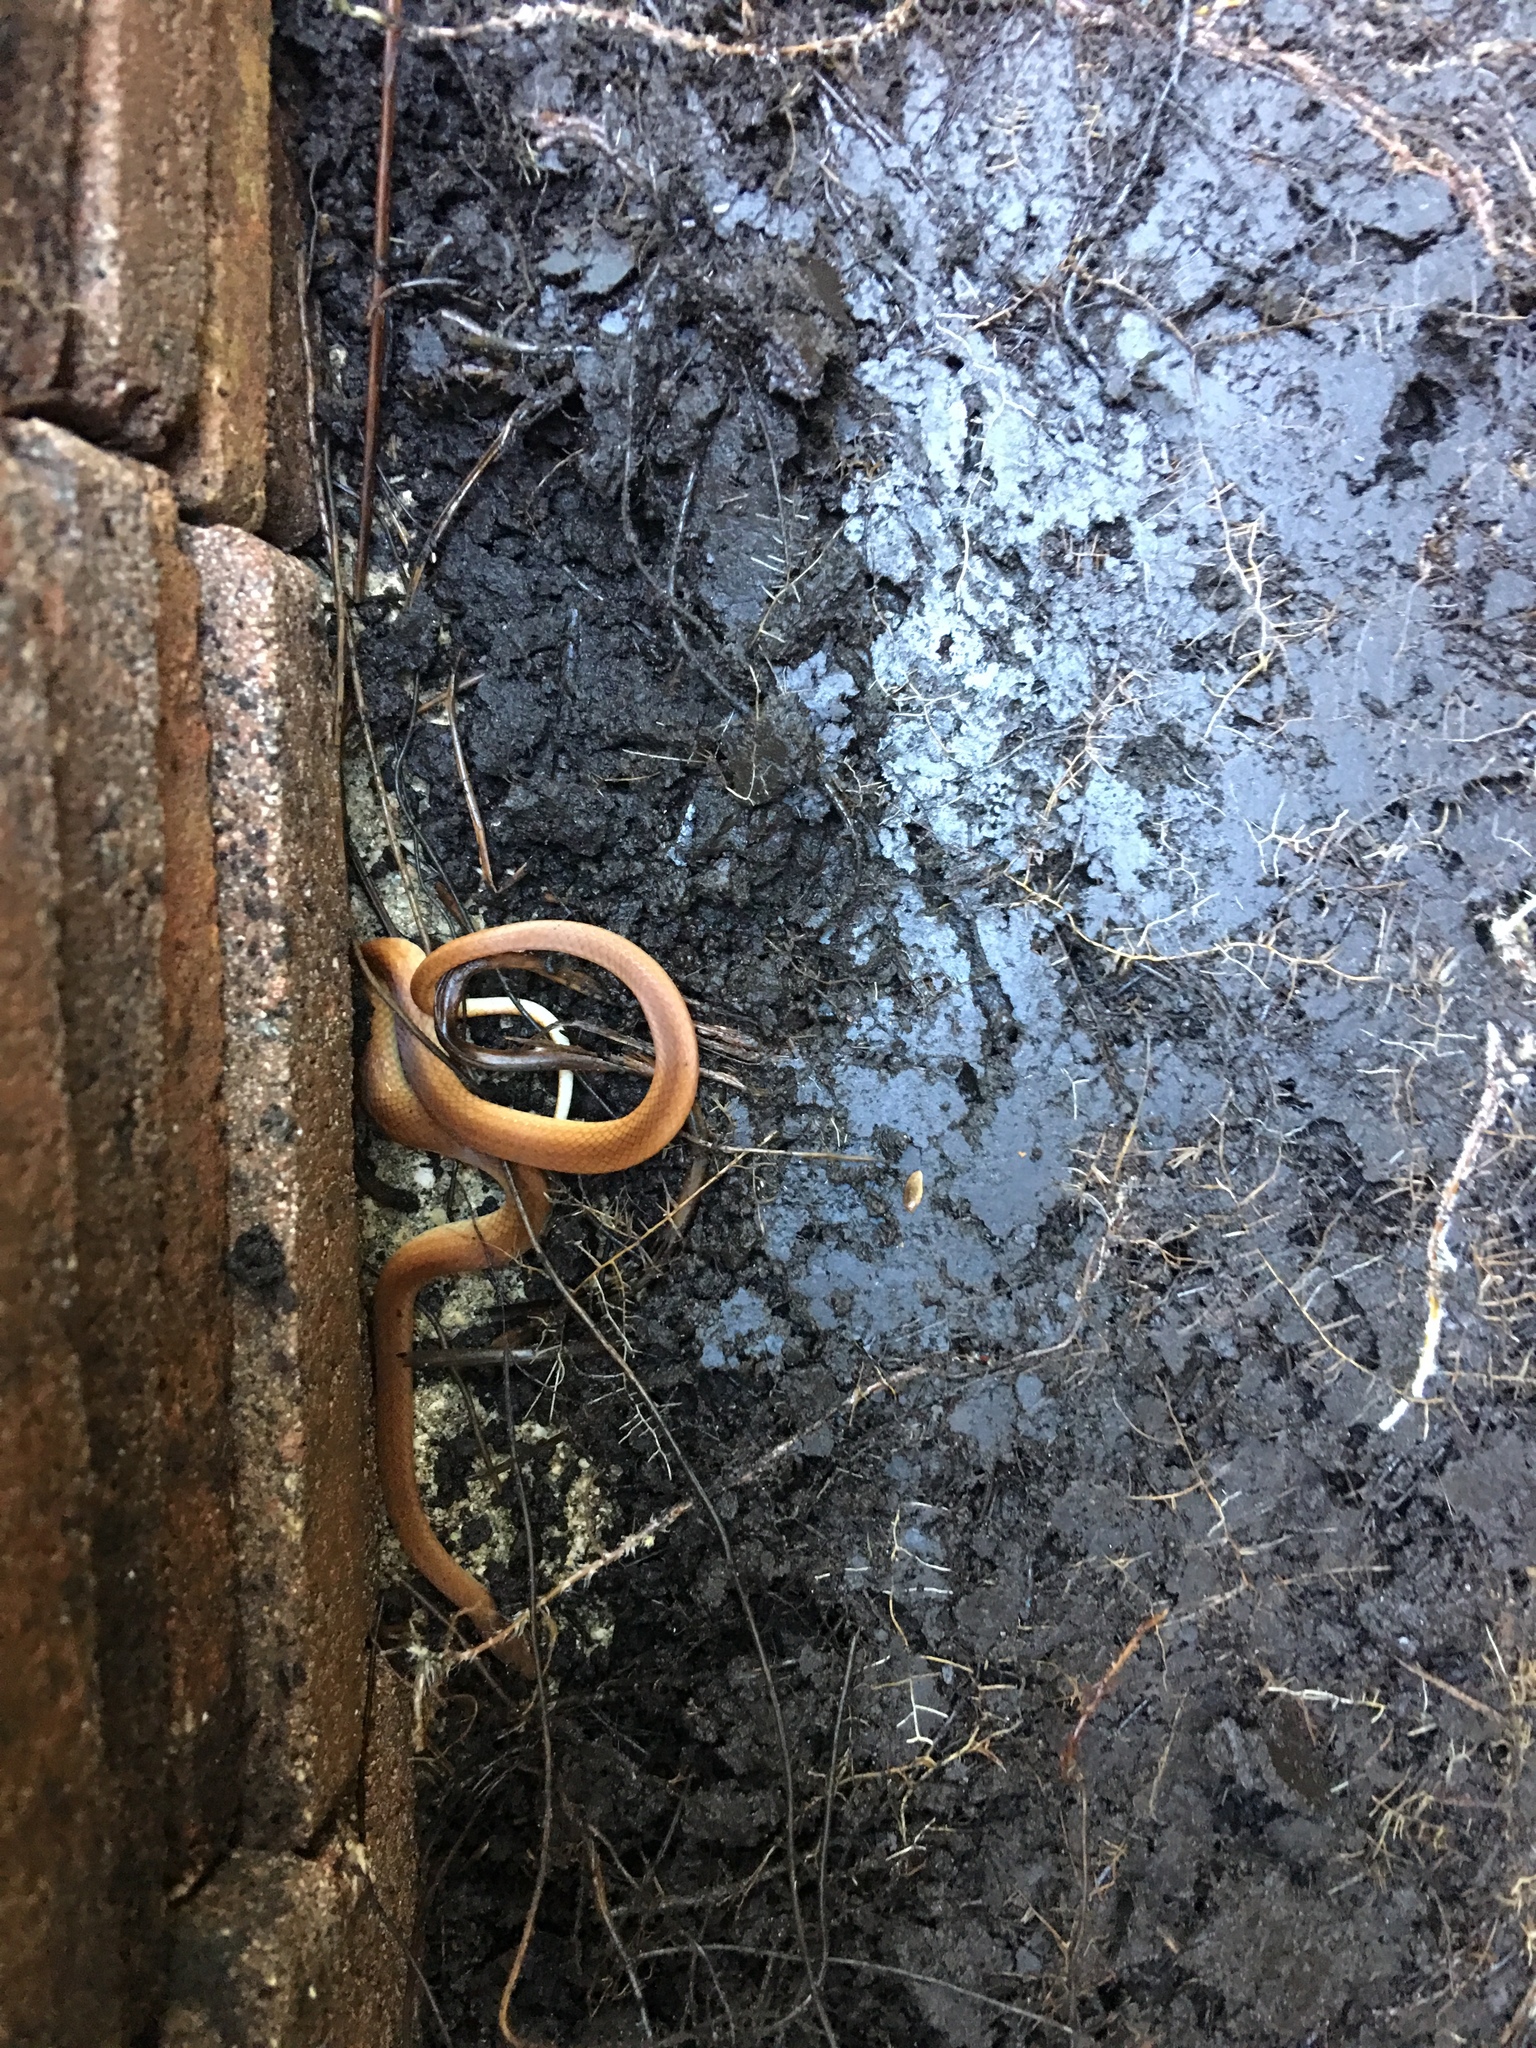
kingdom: Animalia
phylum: Chordata
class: Squamata
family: Colubridae
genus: Rhadinaea
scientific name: Rhadinaea flavilata
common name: Pine woods littersnake
